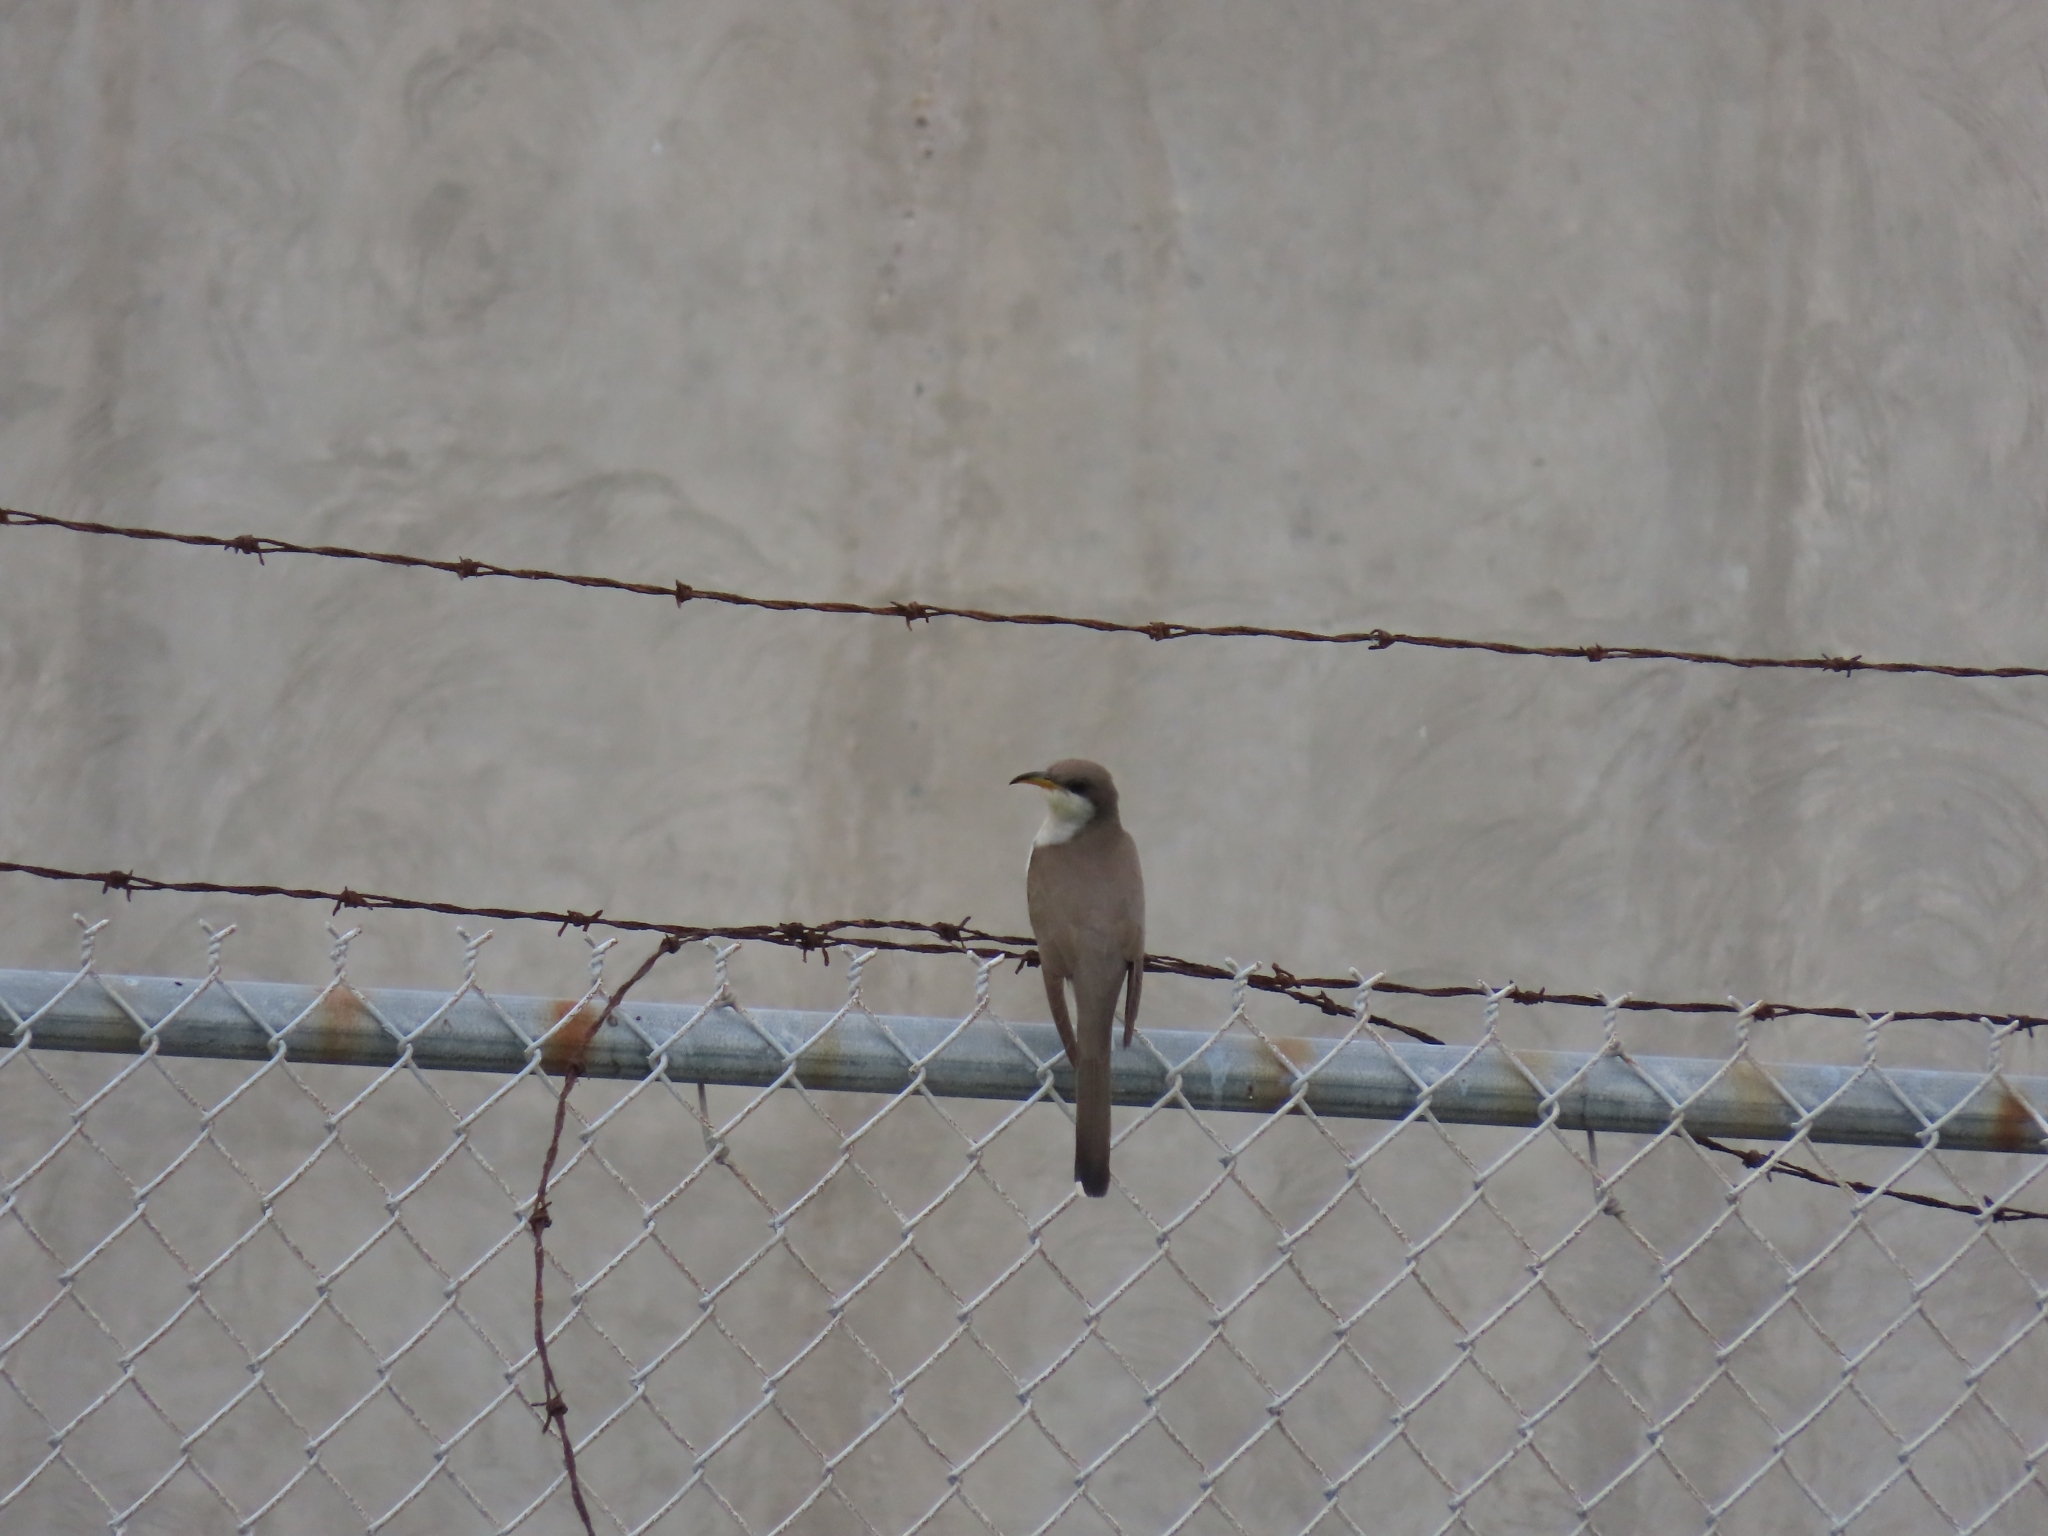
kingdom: Animalia
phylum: Chordata
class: Aves
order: Cuculiformes
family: Cuculidae
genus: Coccyzus
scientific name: Coccyzus americanus
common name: Yellow-billed cuckoo
